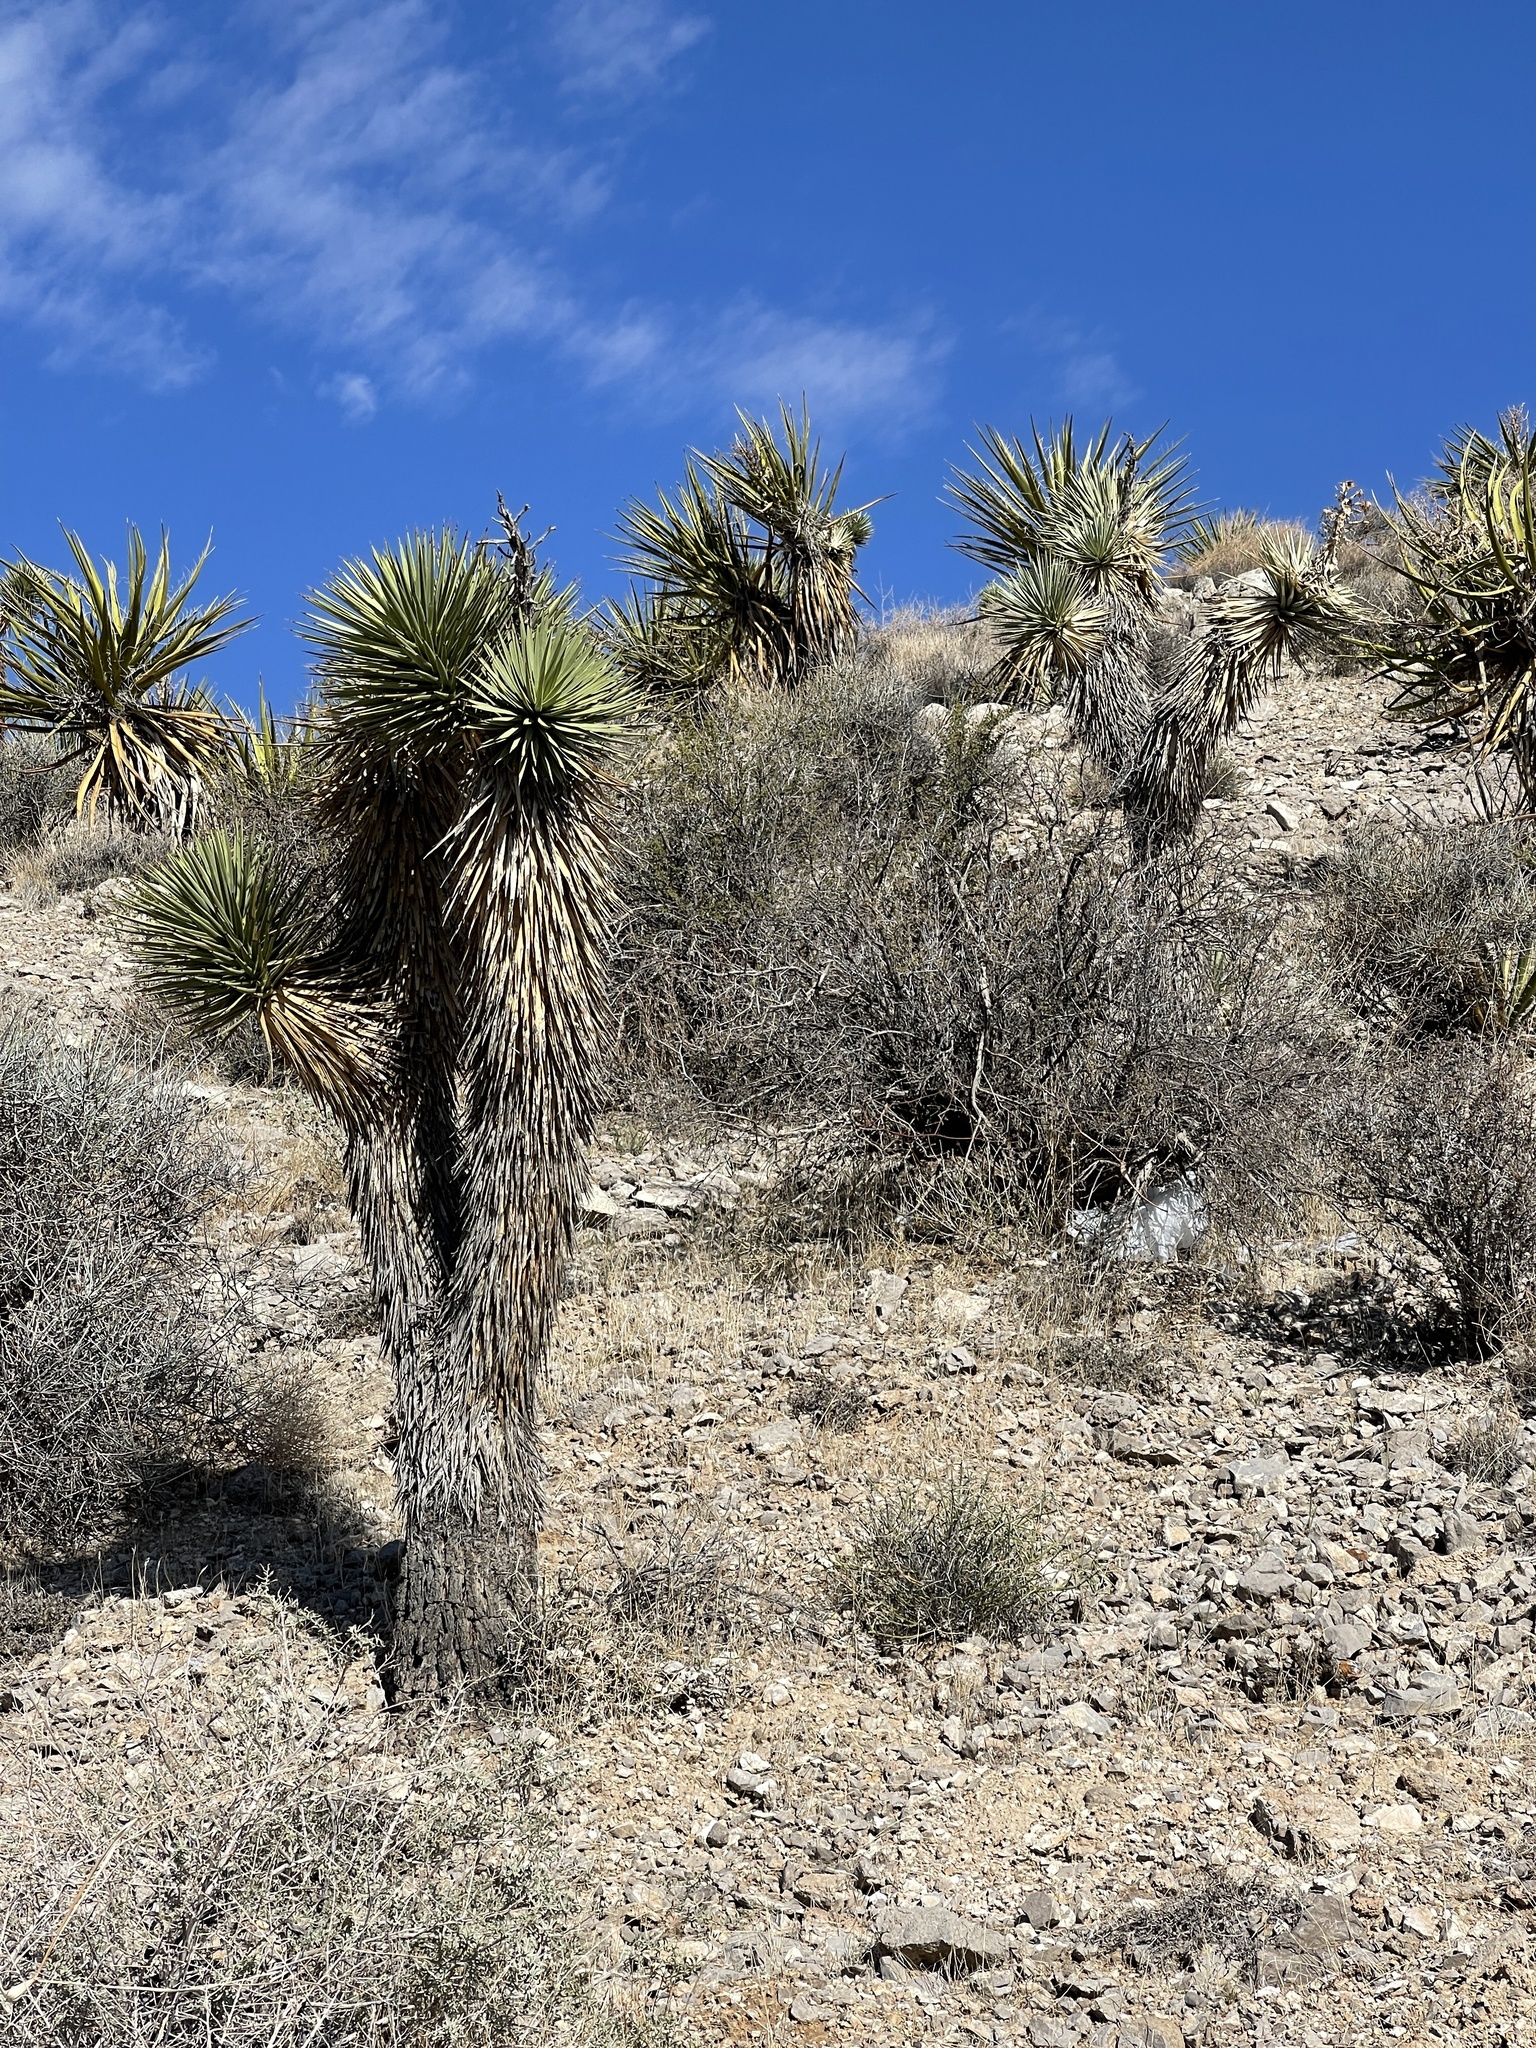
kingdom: Plantae
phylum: Tracheophyta
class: Liliopsida
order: Asparagales
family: Asparagaceae
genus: Yucca
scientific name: Yucca brevifolia
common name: Joshua tree
